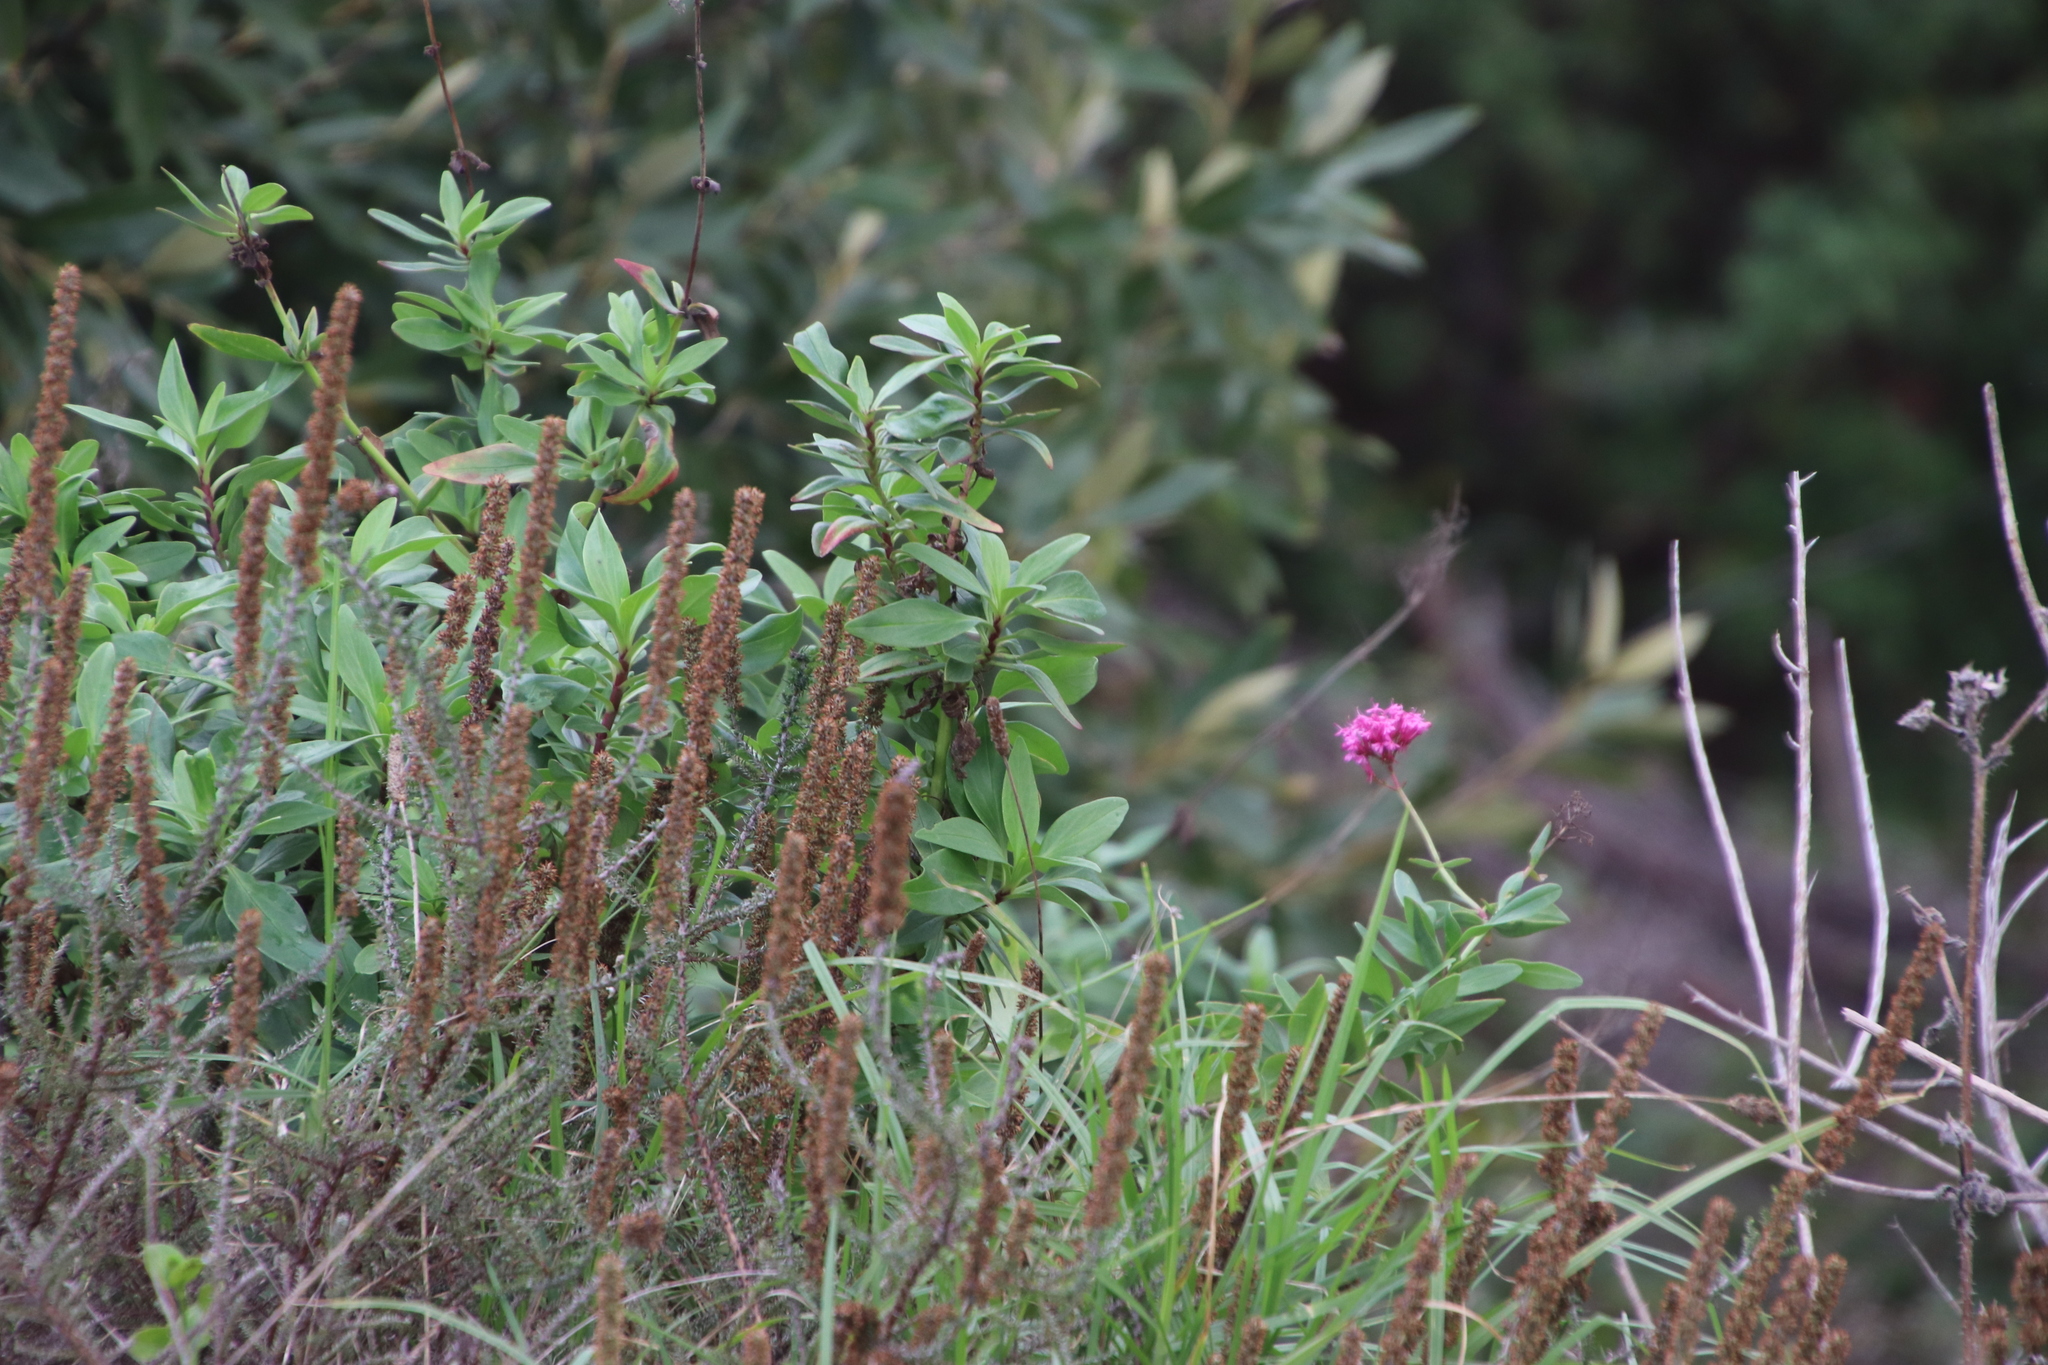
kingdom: Plantae
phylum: Tracheophyta
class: Magnoliopsida
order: Dipsacales
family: Caprifoliaceae
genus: Centranthus
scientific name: Centranthus ruber
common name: Red valerian
